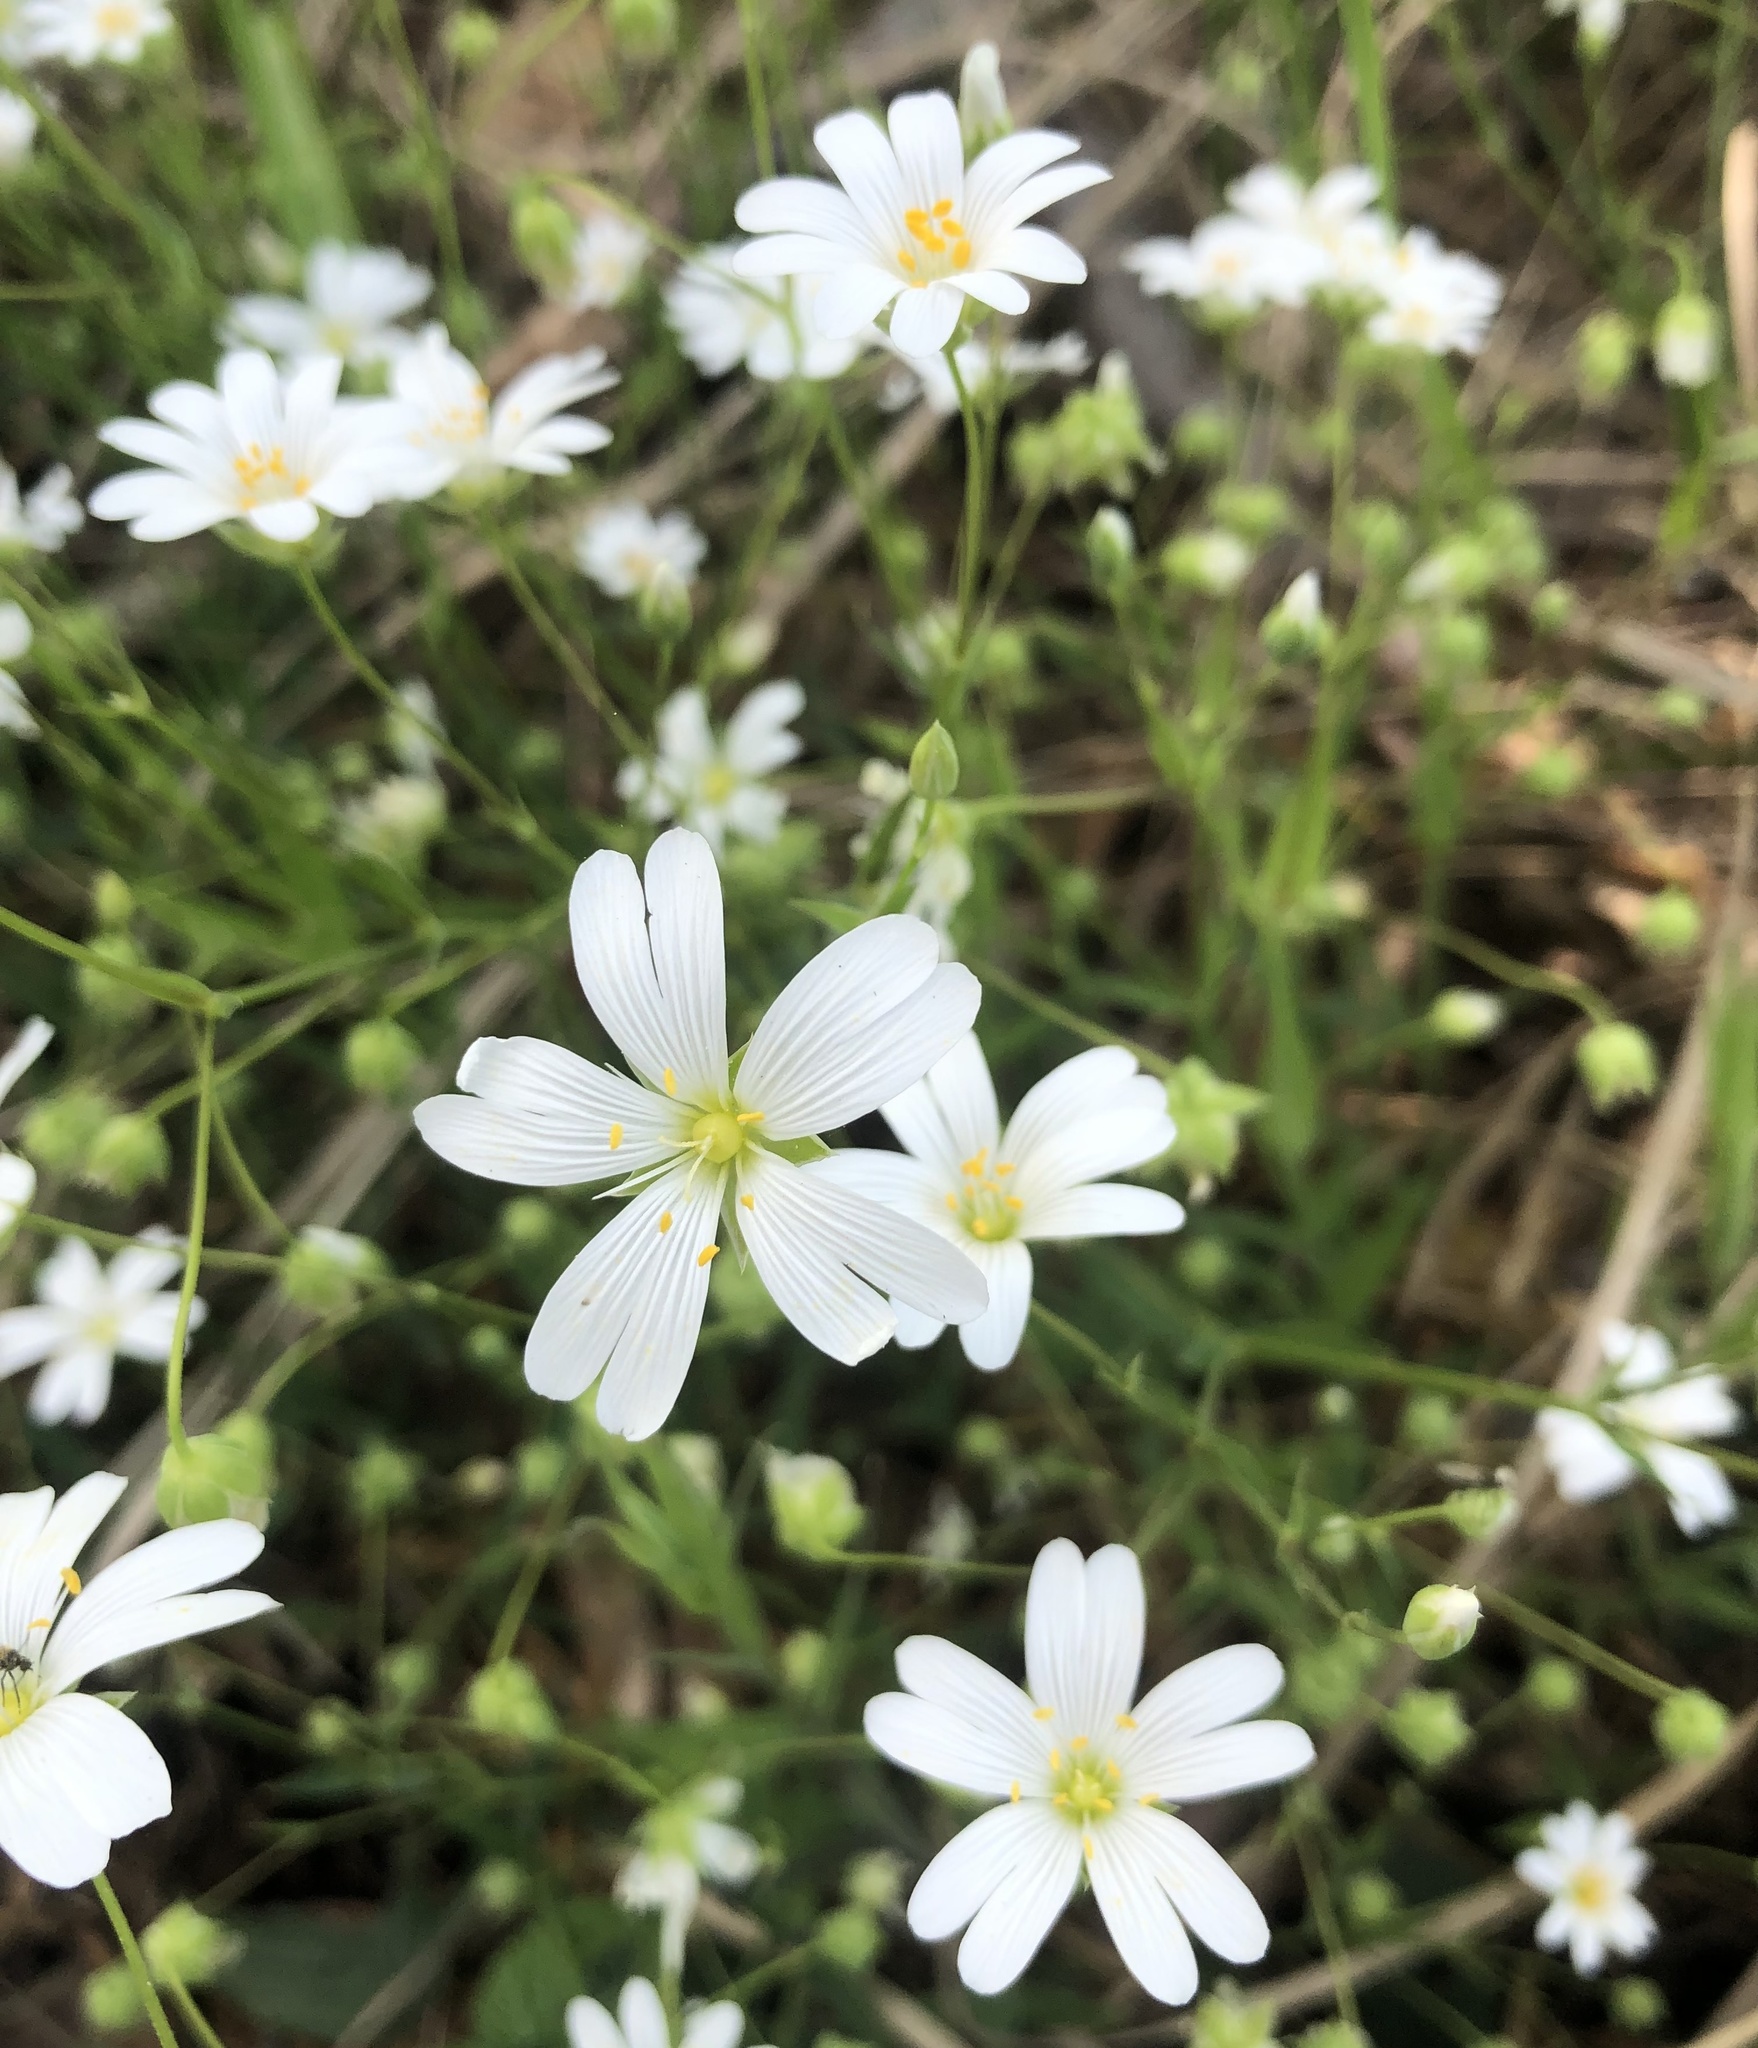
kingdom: Plantae
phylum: Tracheophyta
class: Magnoliopsida
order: Caryophyllales
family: Caryophyllaceae
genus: Rabelera
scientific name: Rabelera holostea
